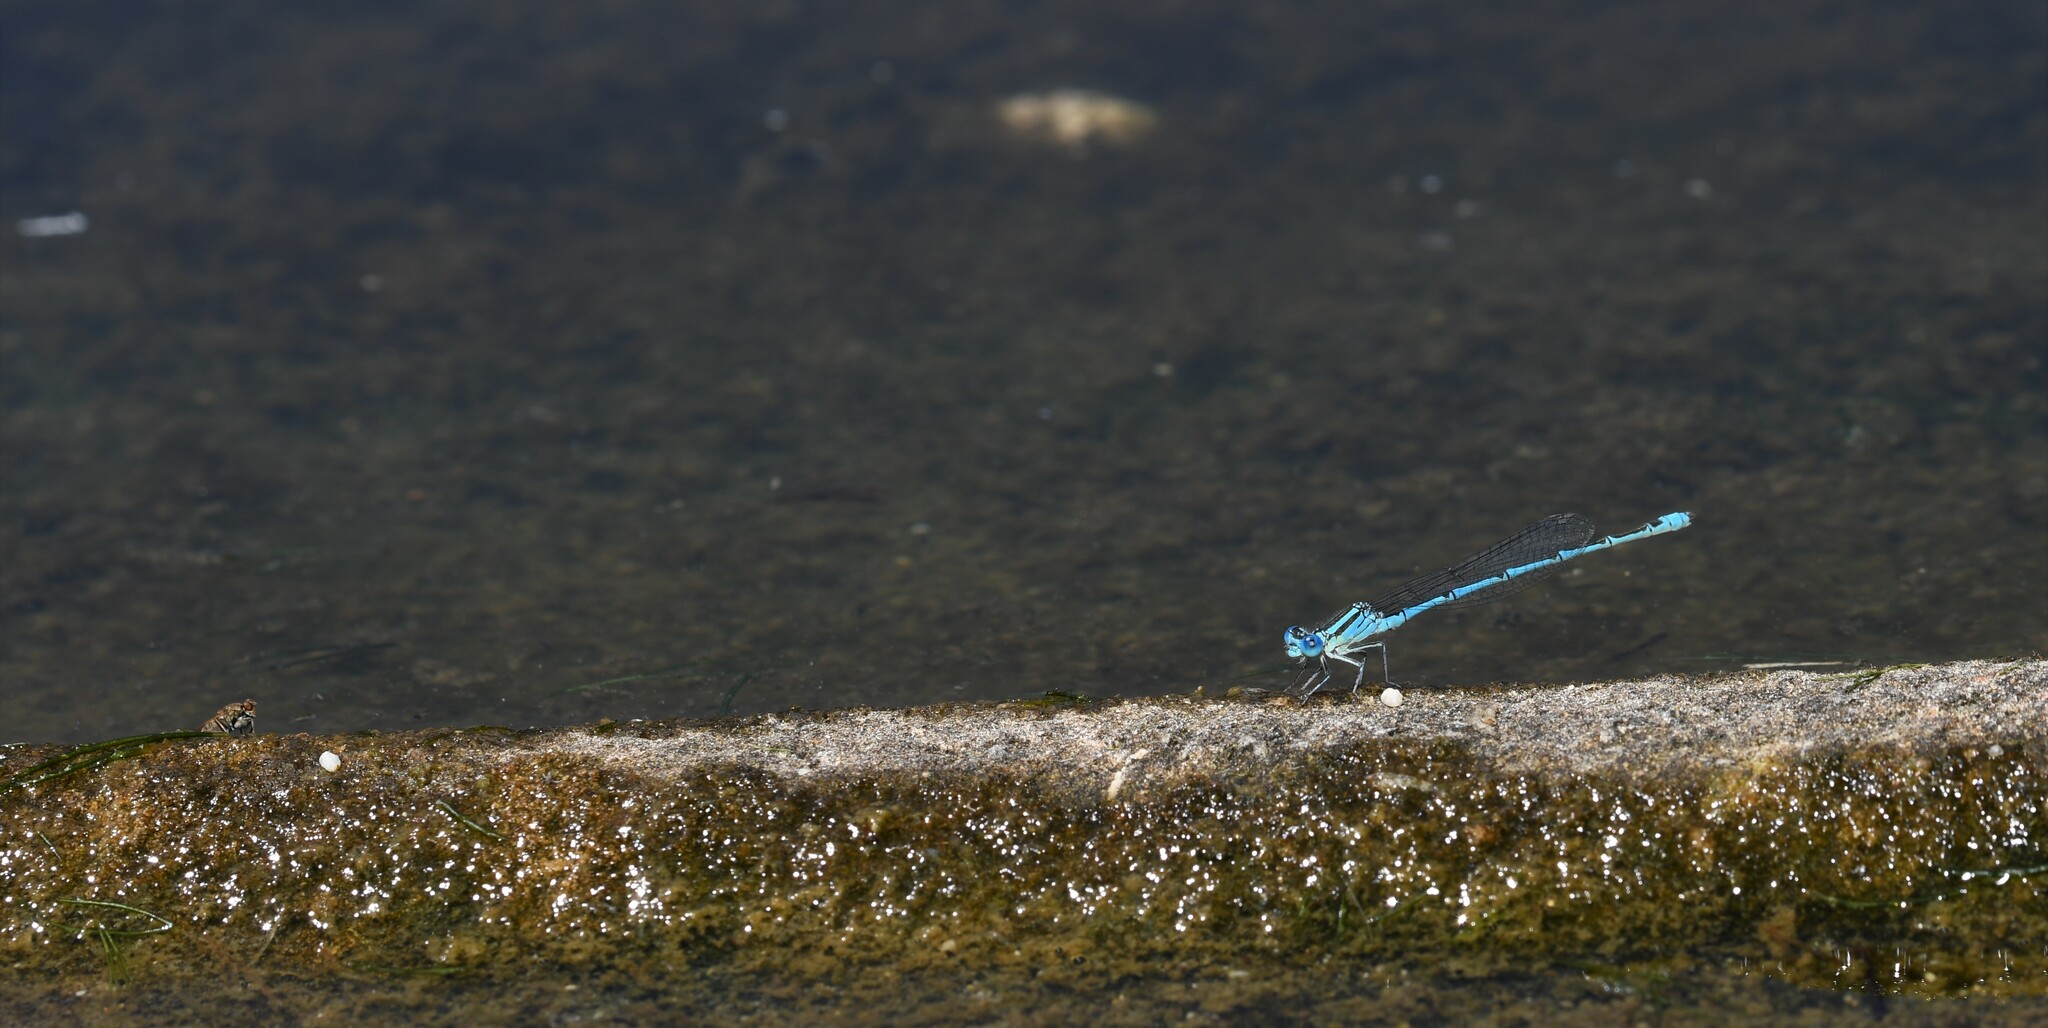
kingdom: Animalia
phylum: Arthropoda
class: Insecta
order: Odonata
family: Coenagrionidae
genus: Erythromma
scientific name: Erythromma lindenii
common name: Blue-eye
